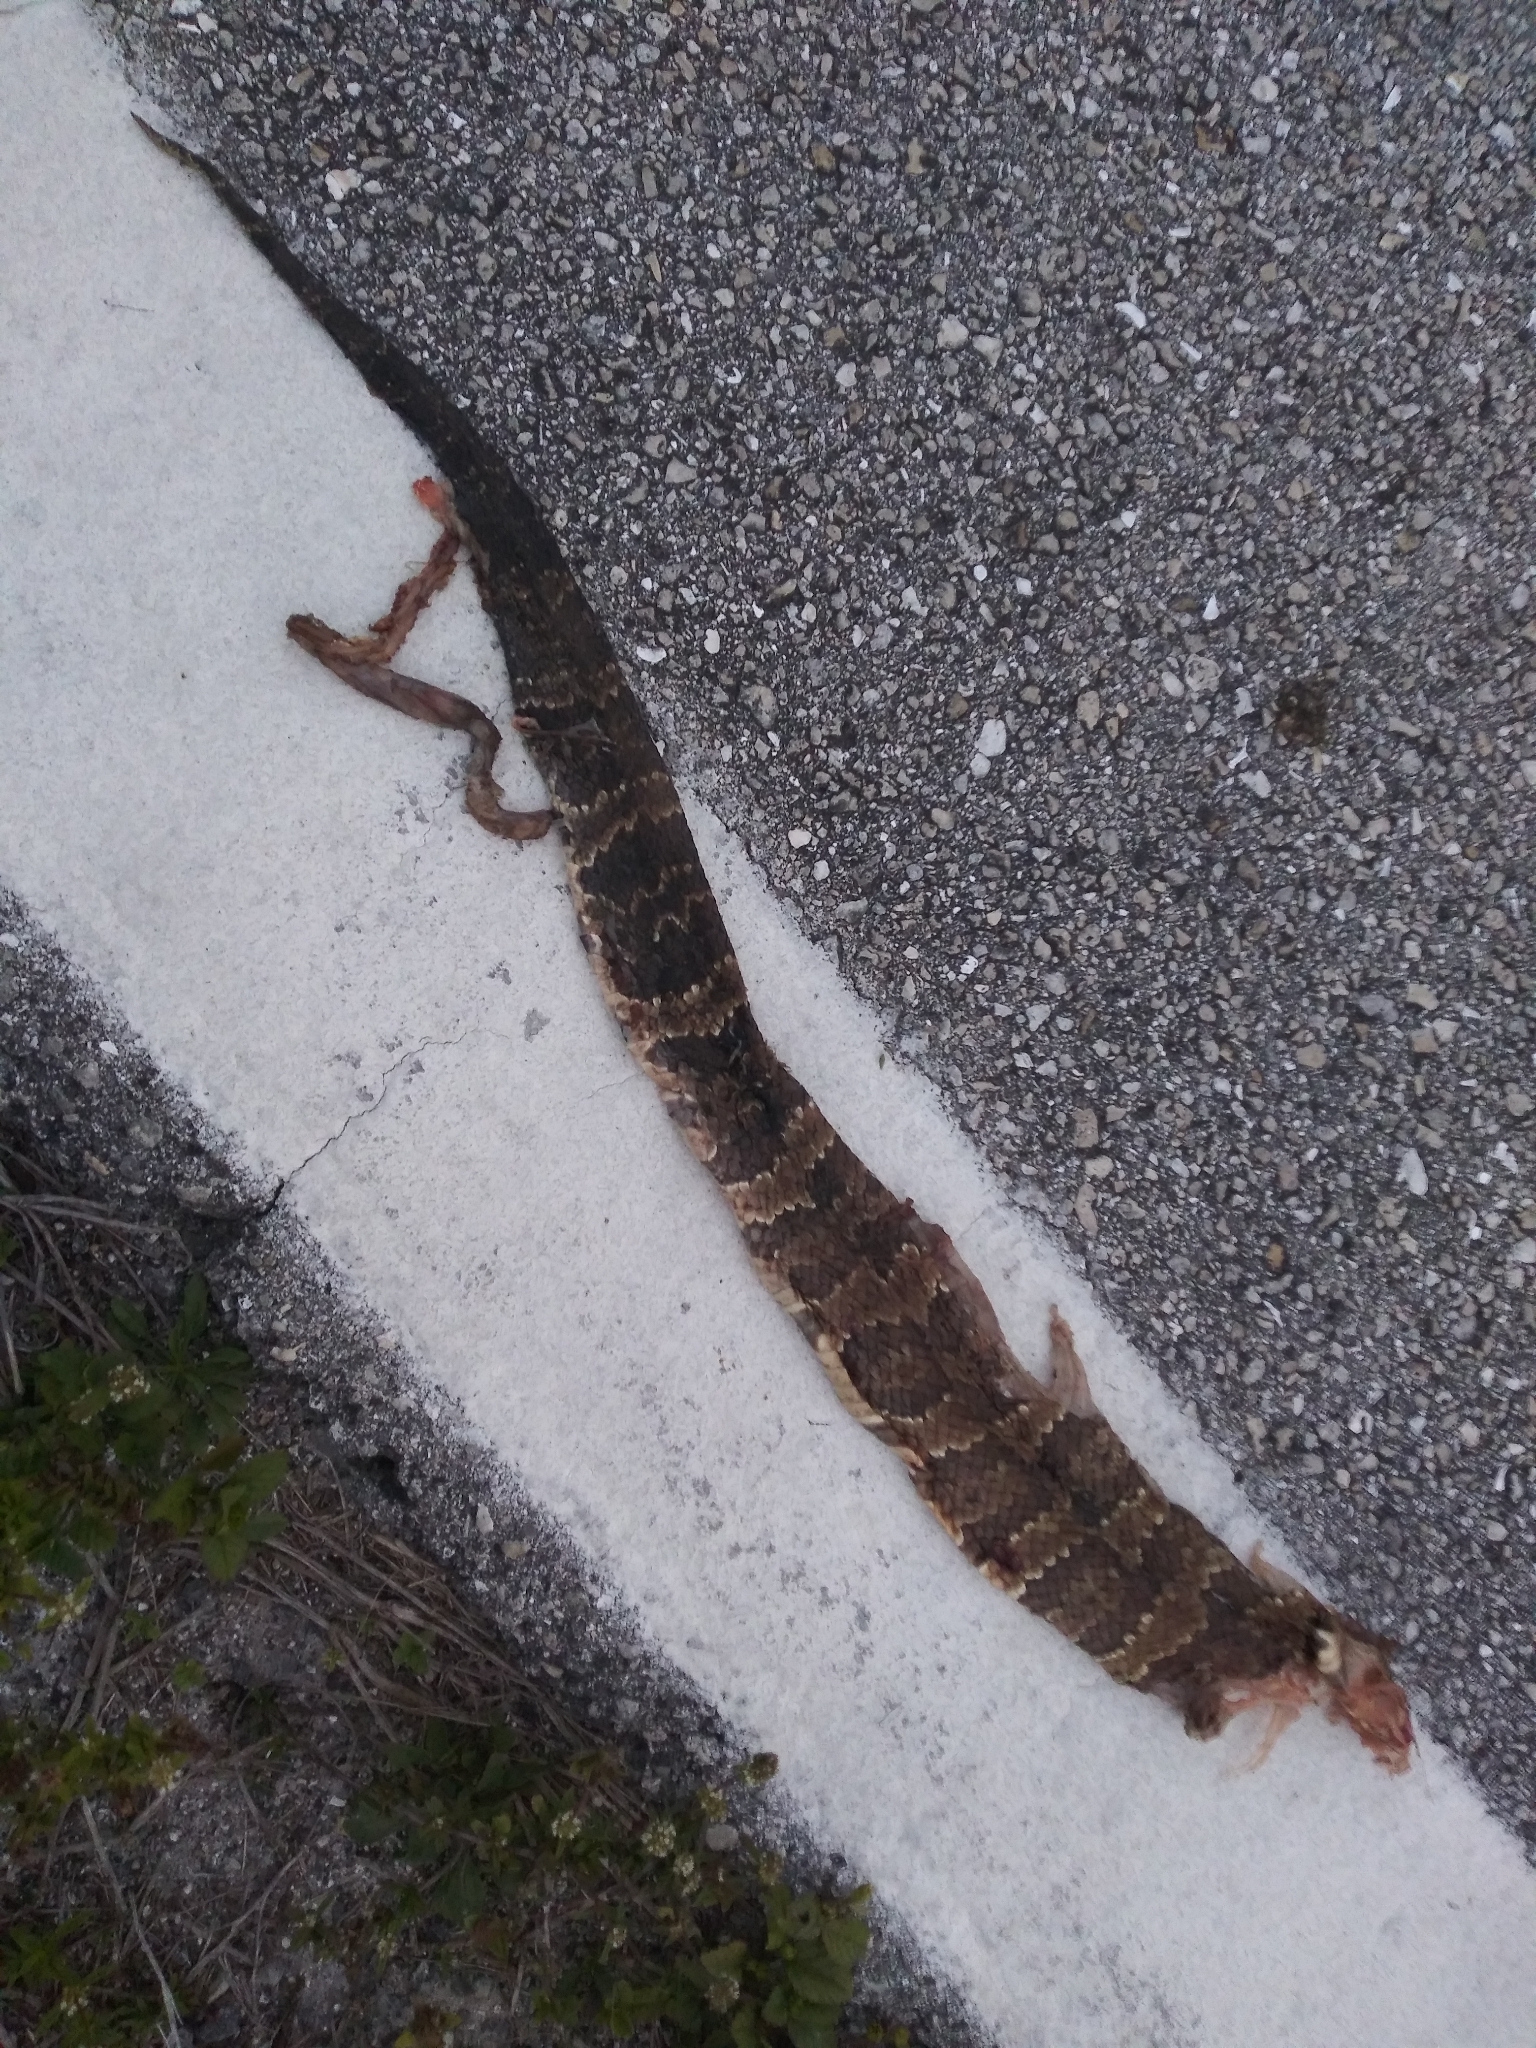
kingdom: Animalia
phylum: Chordata
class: Squamata
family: Viperidae
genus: Agkistrodon
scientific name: Agkistrodon conanti
